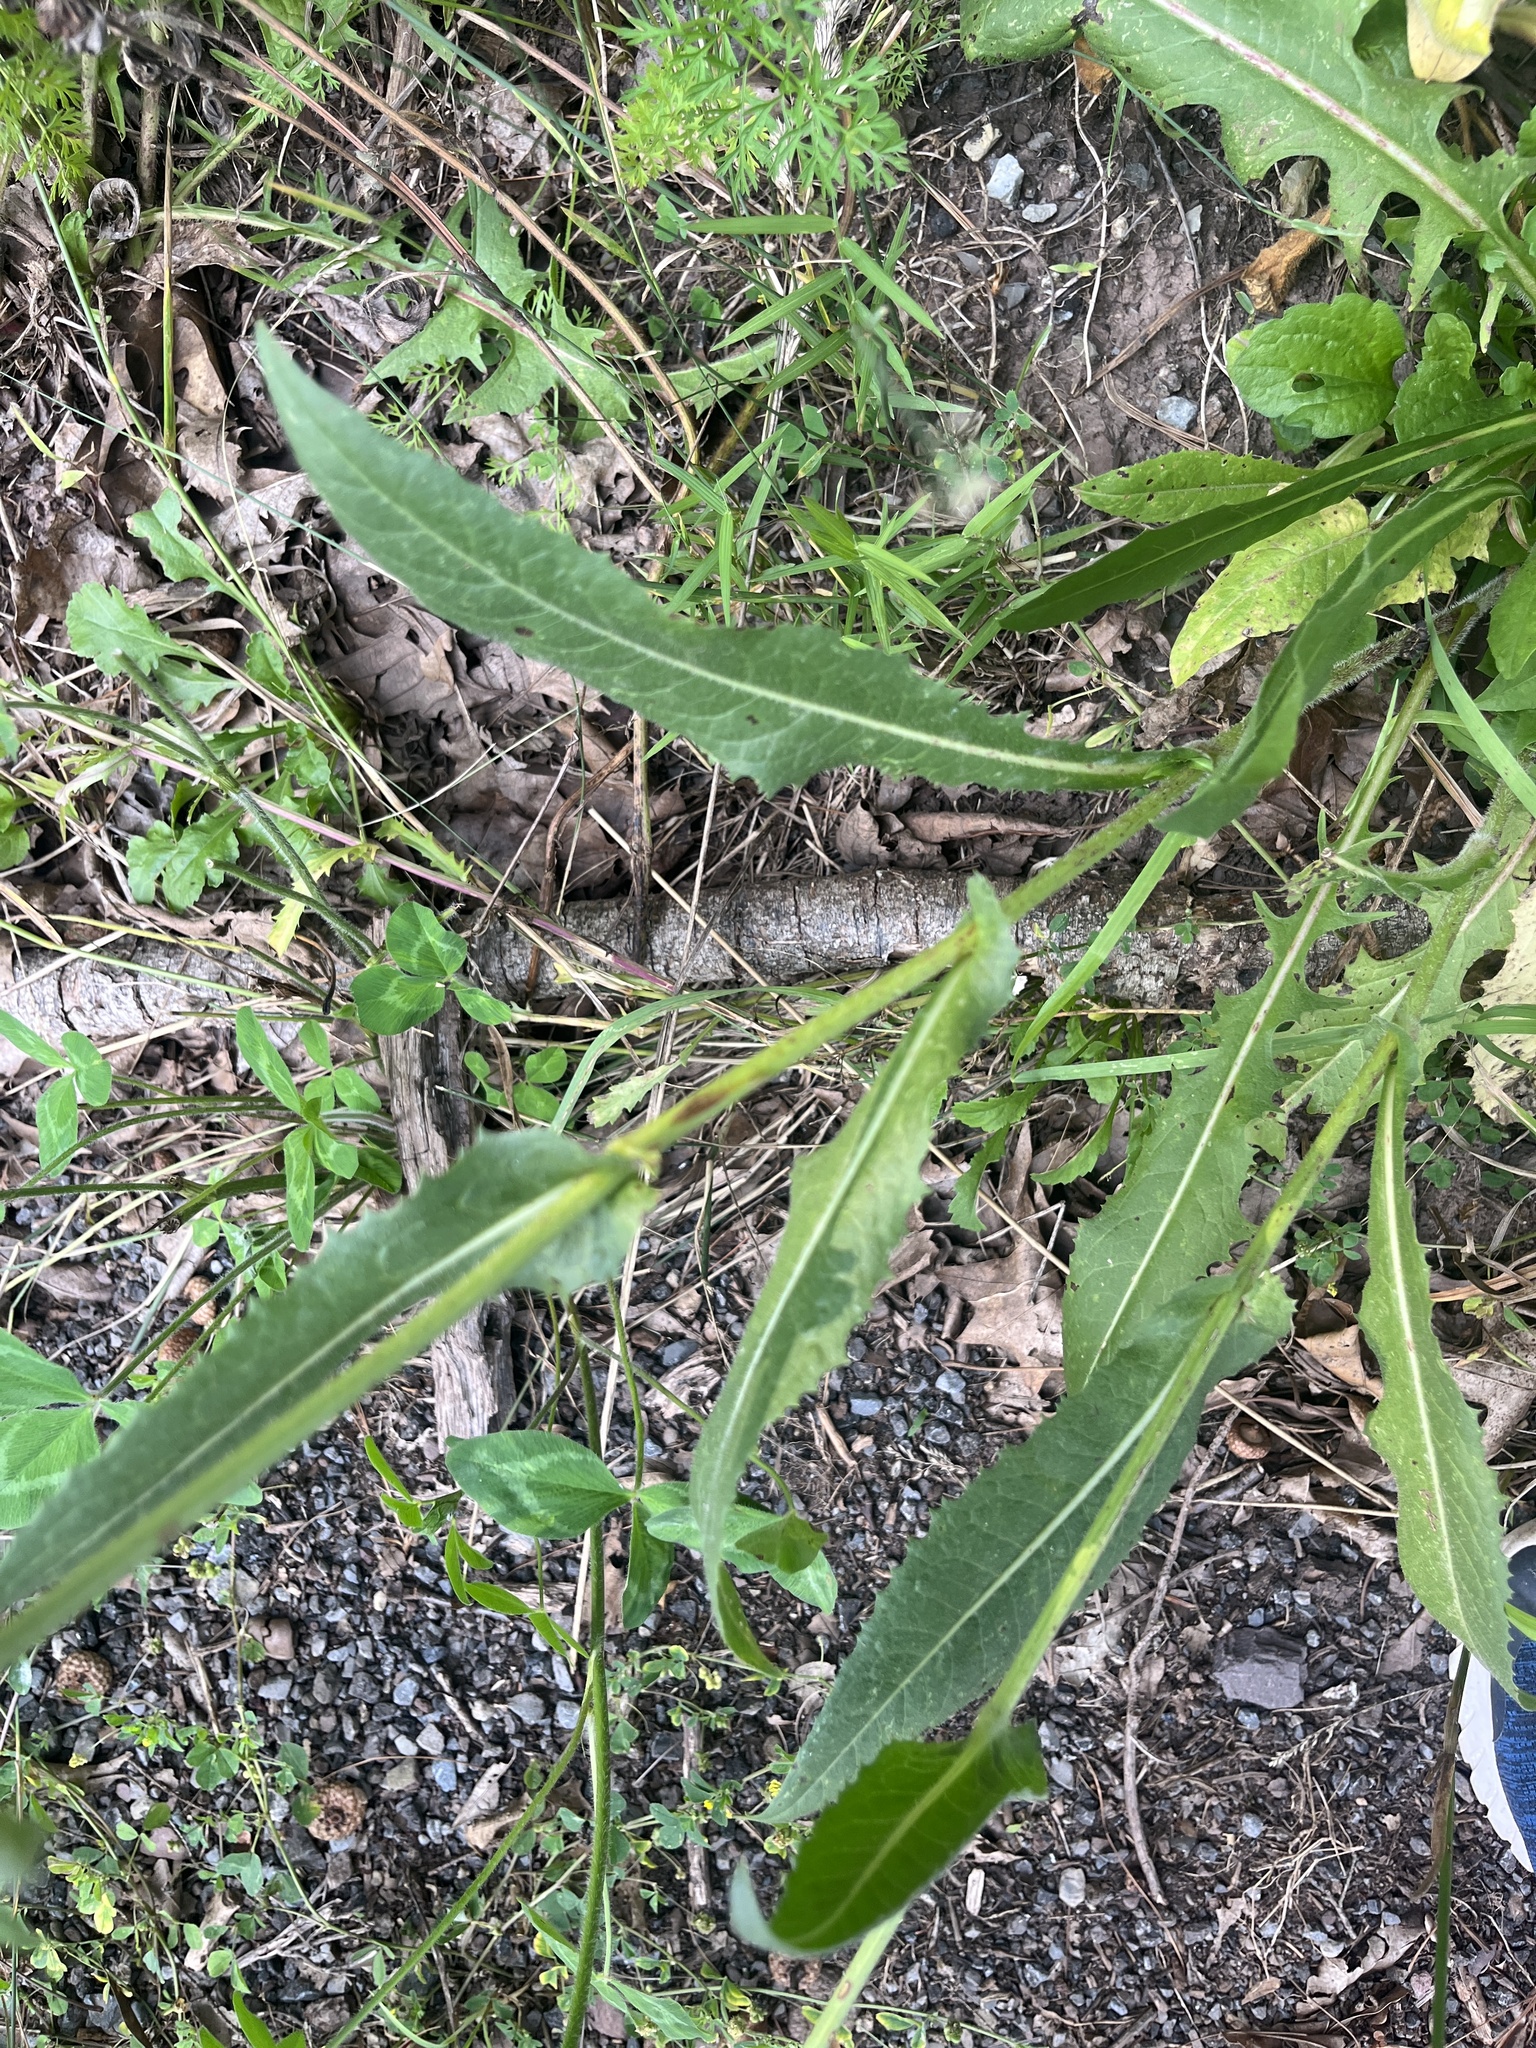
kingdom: Plantae
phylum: Tracheophyta
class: Magnoliopsida
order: Asterales
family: Asteraceae
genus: Cichorium
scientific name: Cichorium intybus
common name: Chicory
